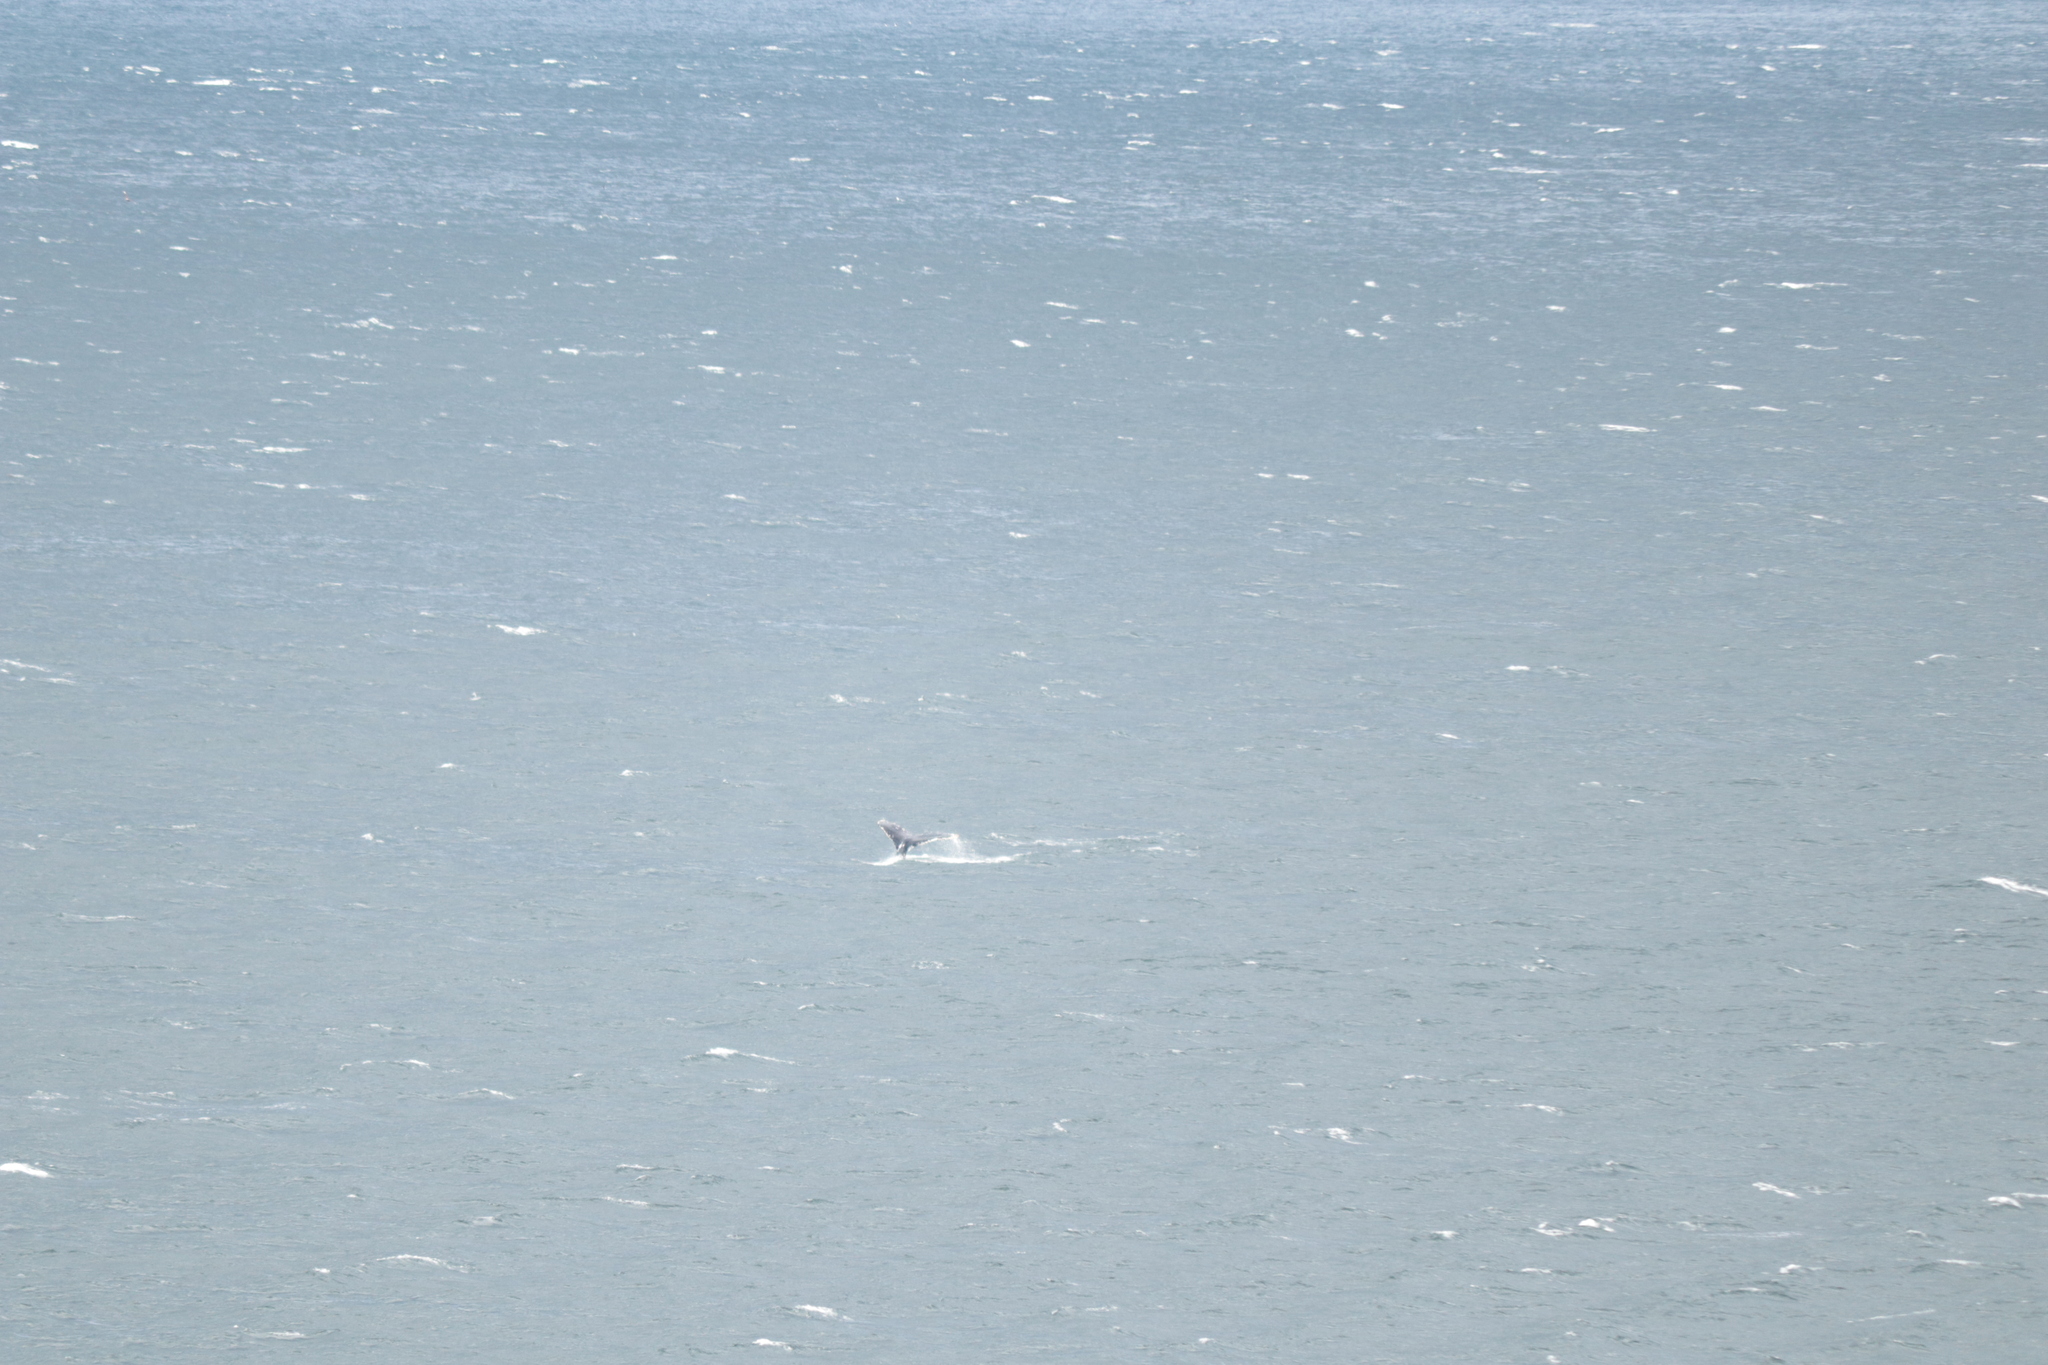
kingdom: Animalia
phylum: Chordata
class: Mammalia
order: Cetacea
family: Balaenopteridae
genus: Megaptera
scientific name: Megaptera novaeangliae
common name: Humpback whale
